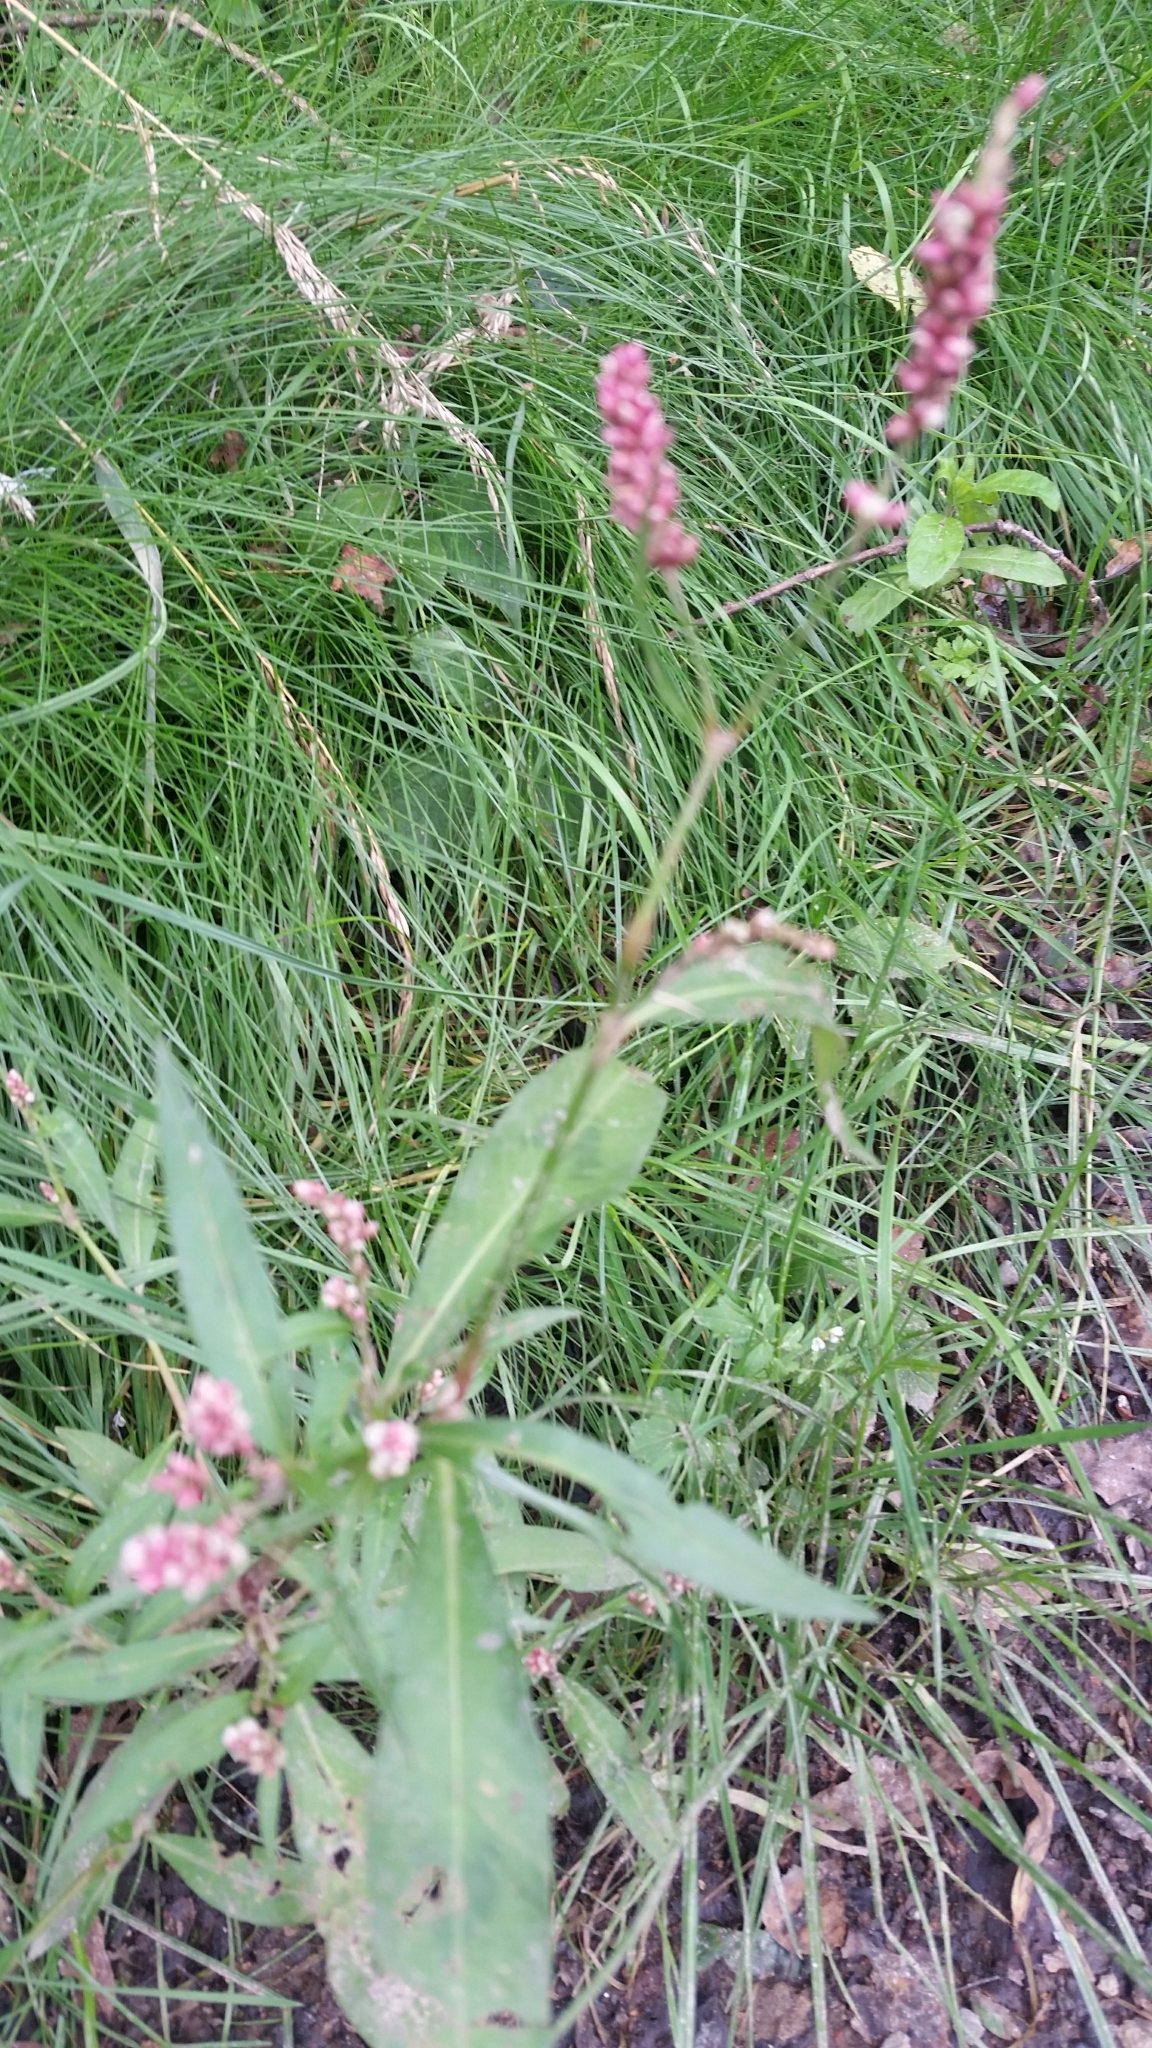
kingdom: Plantae
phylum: Tracheophyta
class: Magnoliopsida
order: Caryophyllales
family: Polygonaceae
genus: Persicaria
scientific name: Persicaria maculosa
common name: Redshank
